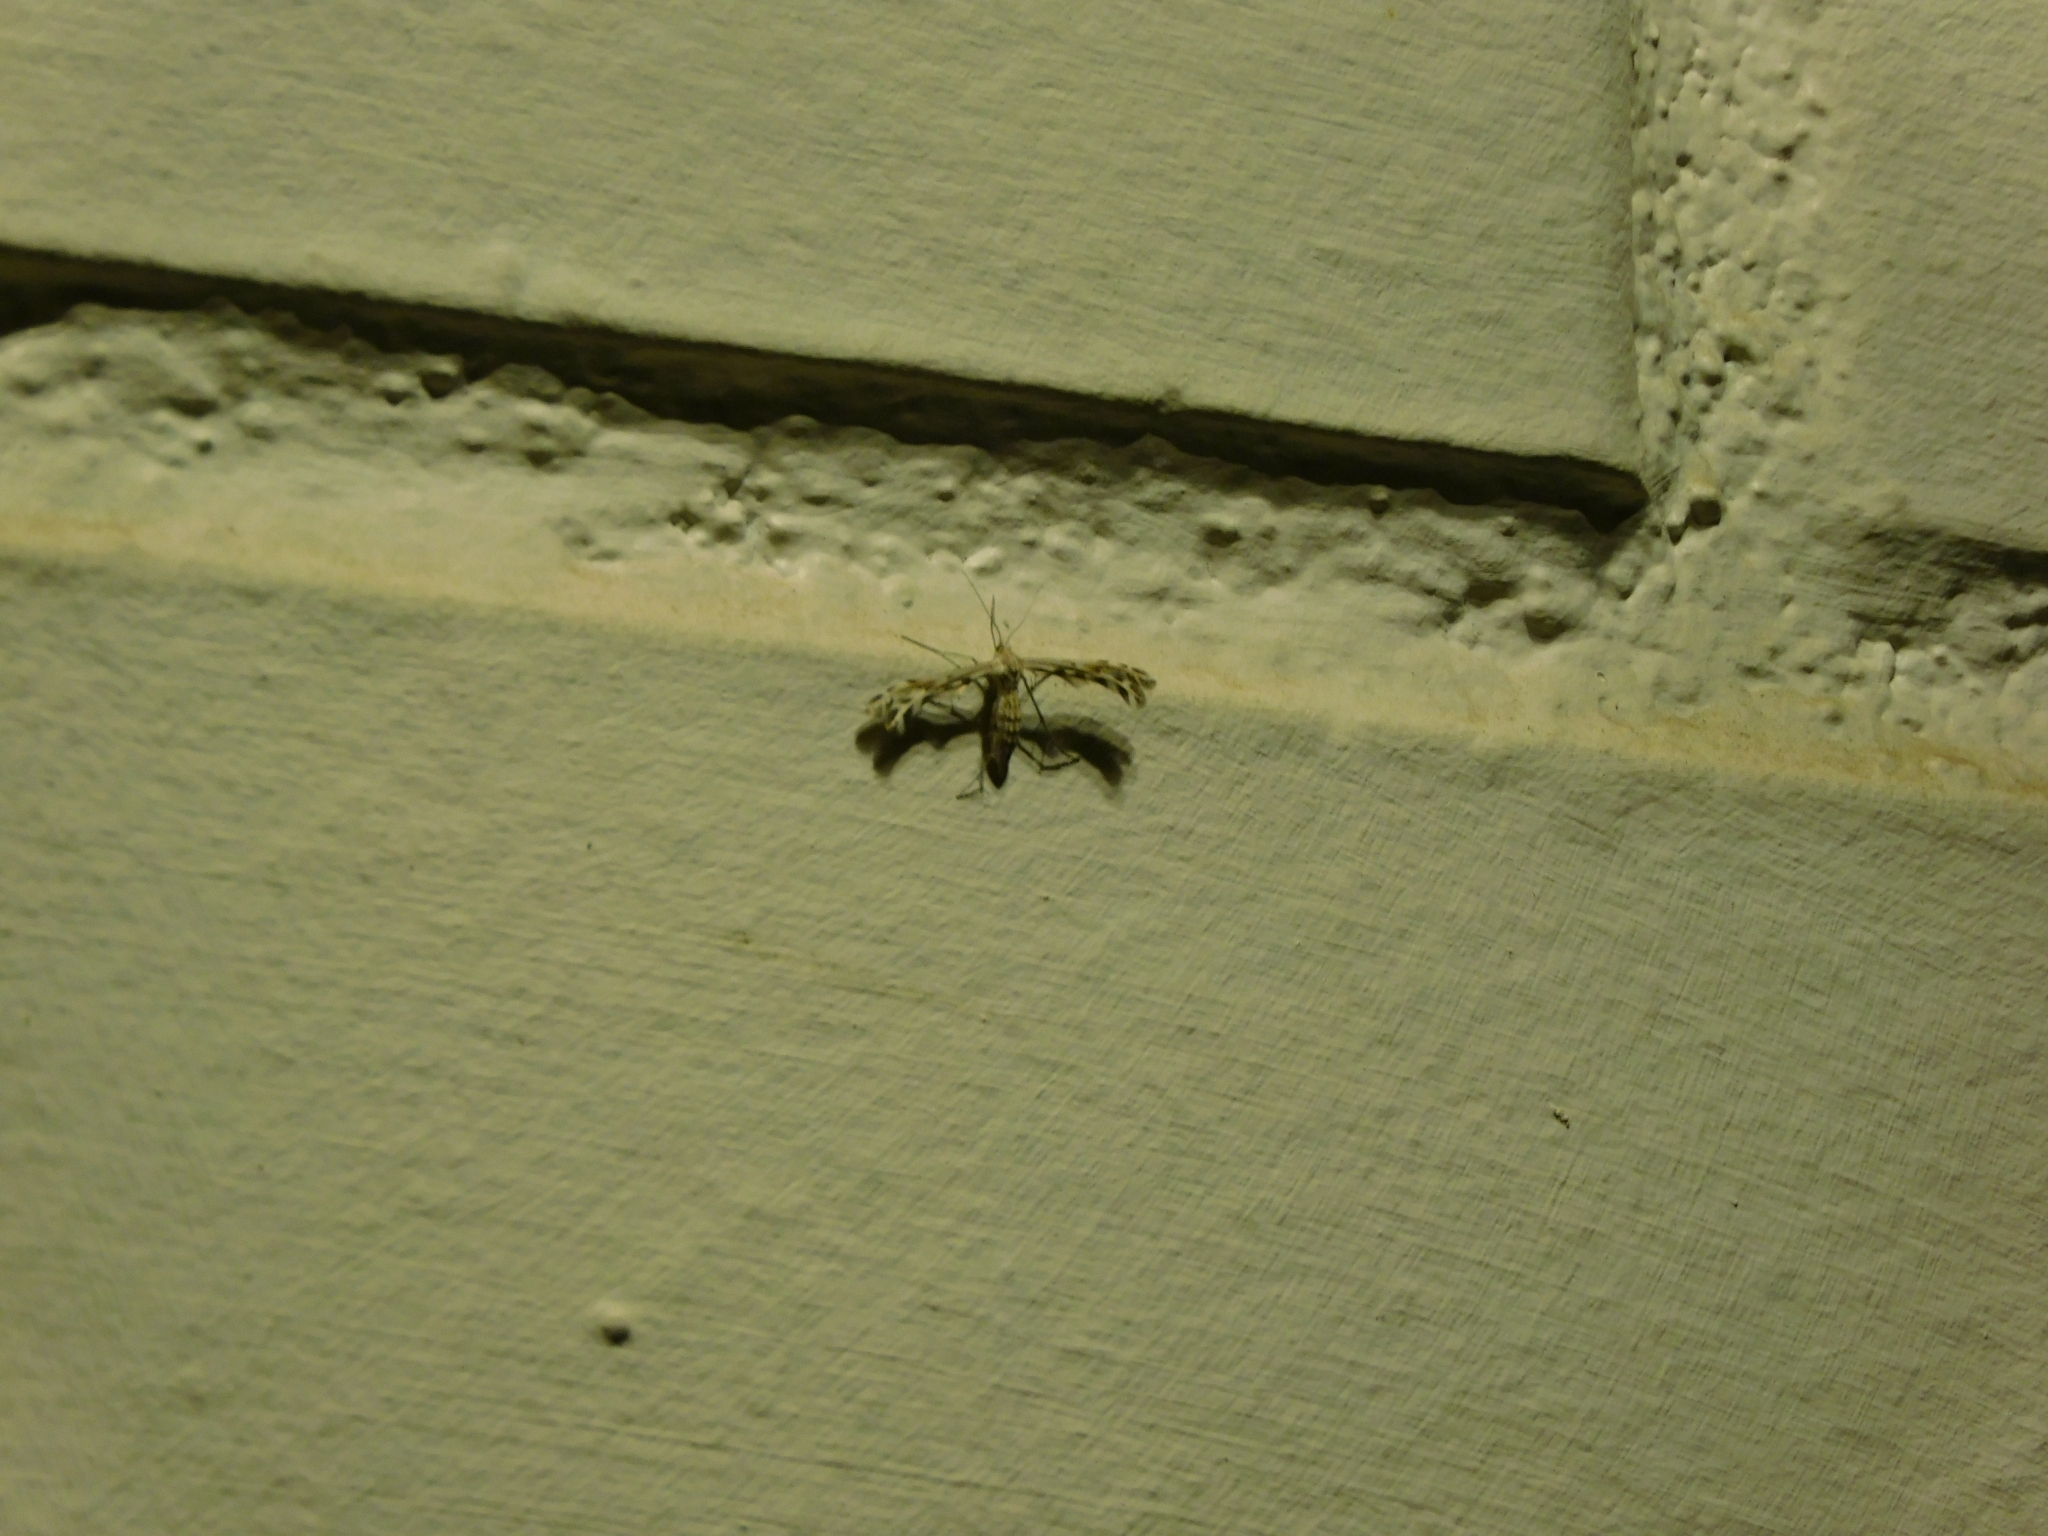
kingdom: Animalia
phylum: Arthropoda
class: Insecta
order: Lepidoptera
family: Pterophoridae
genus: Singularia
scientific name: Singularia alternaria
